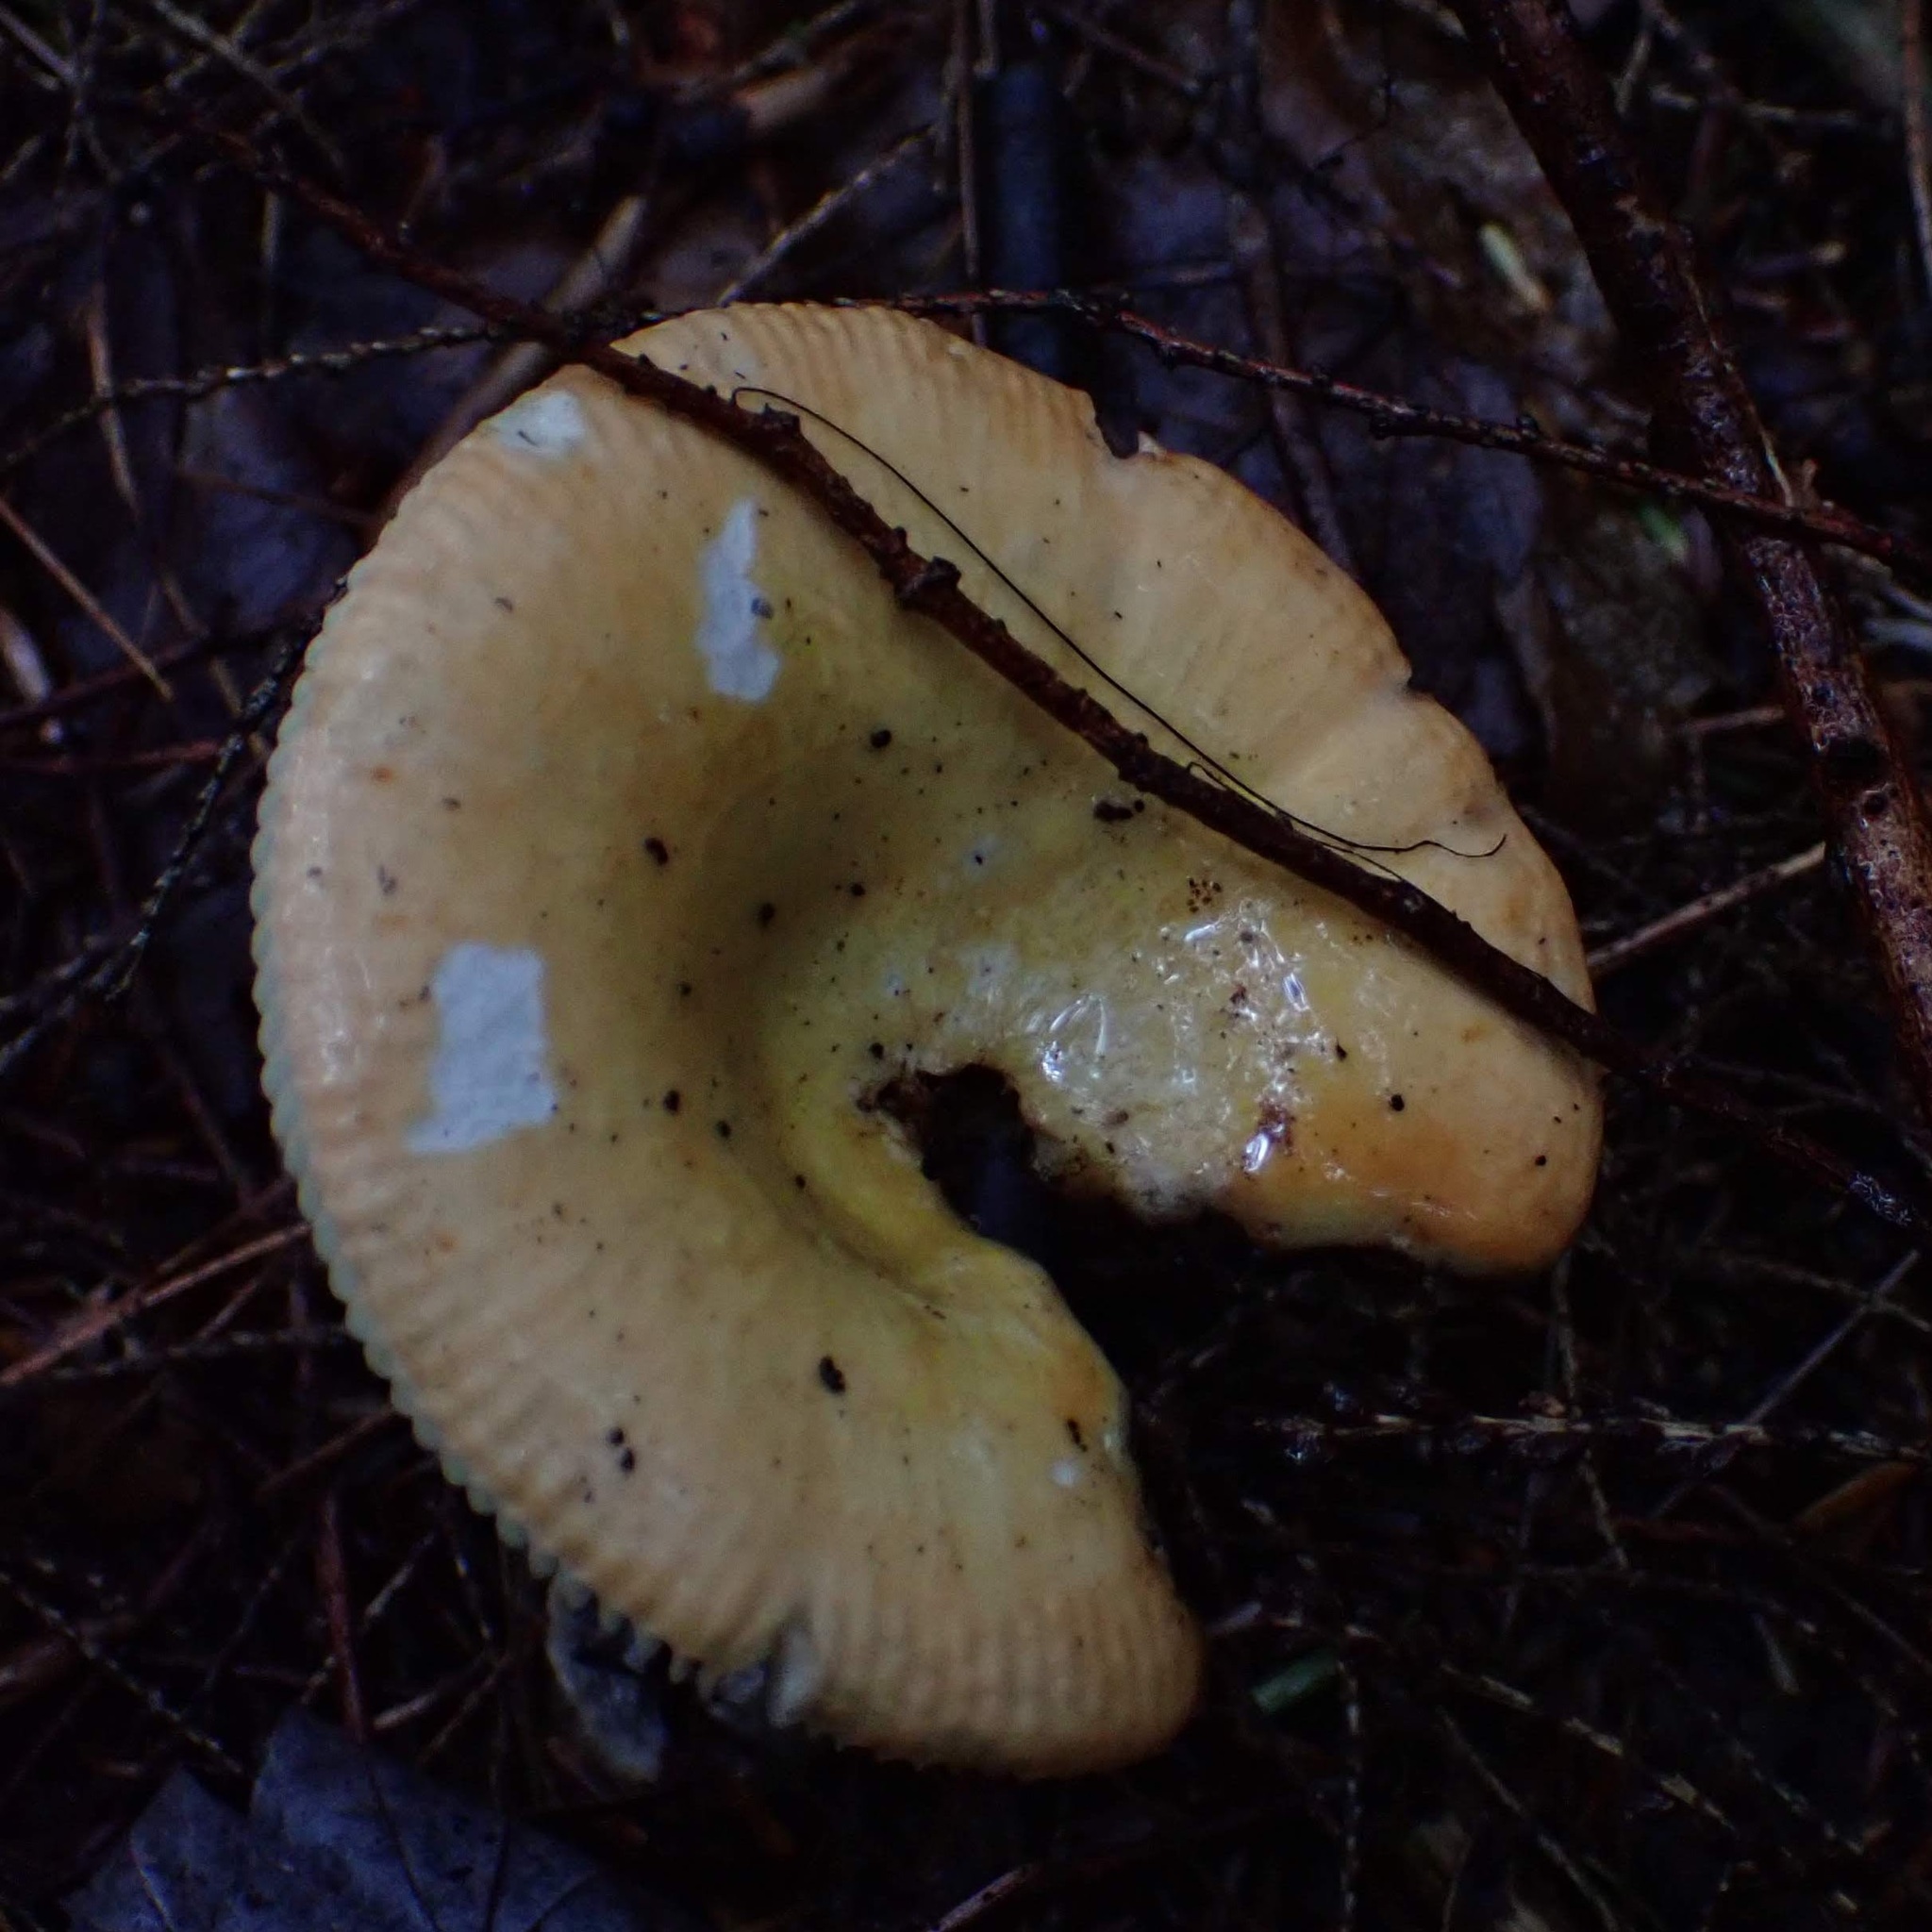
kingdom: Fungi
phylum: Basidiomycota
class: Agaricomycetes
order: Russulales
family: Russulaceae
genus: Russula
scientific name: Russula
